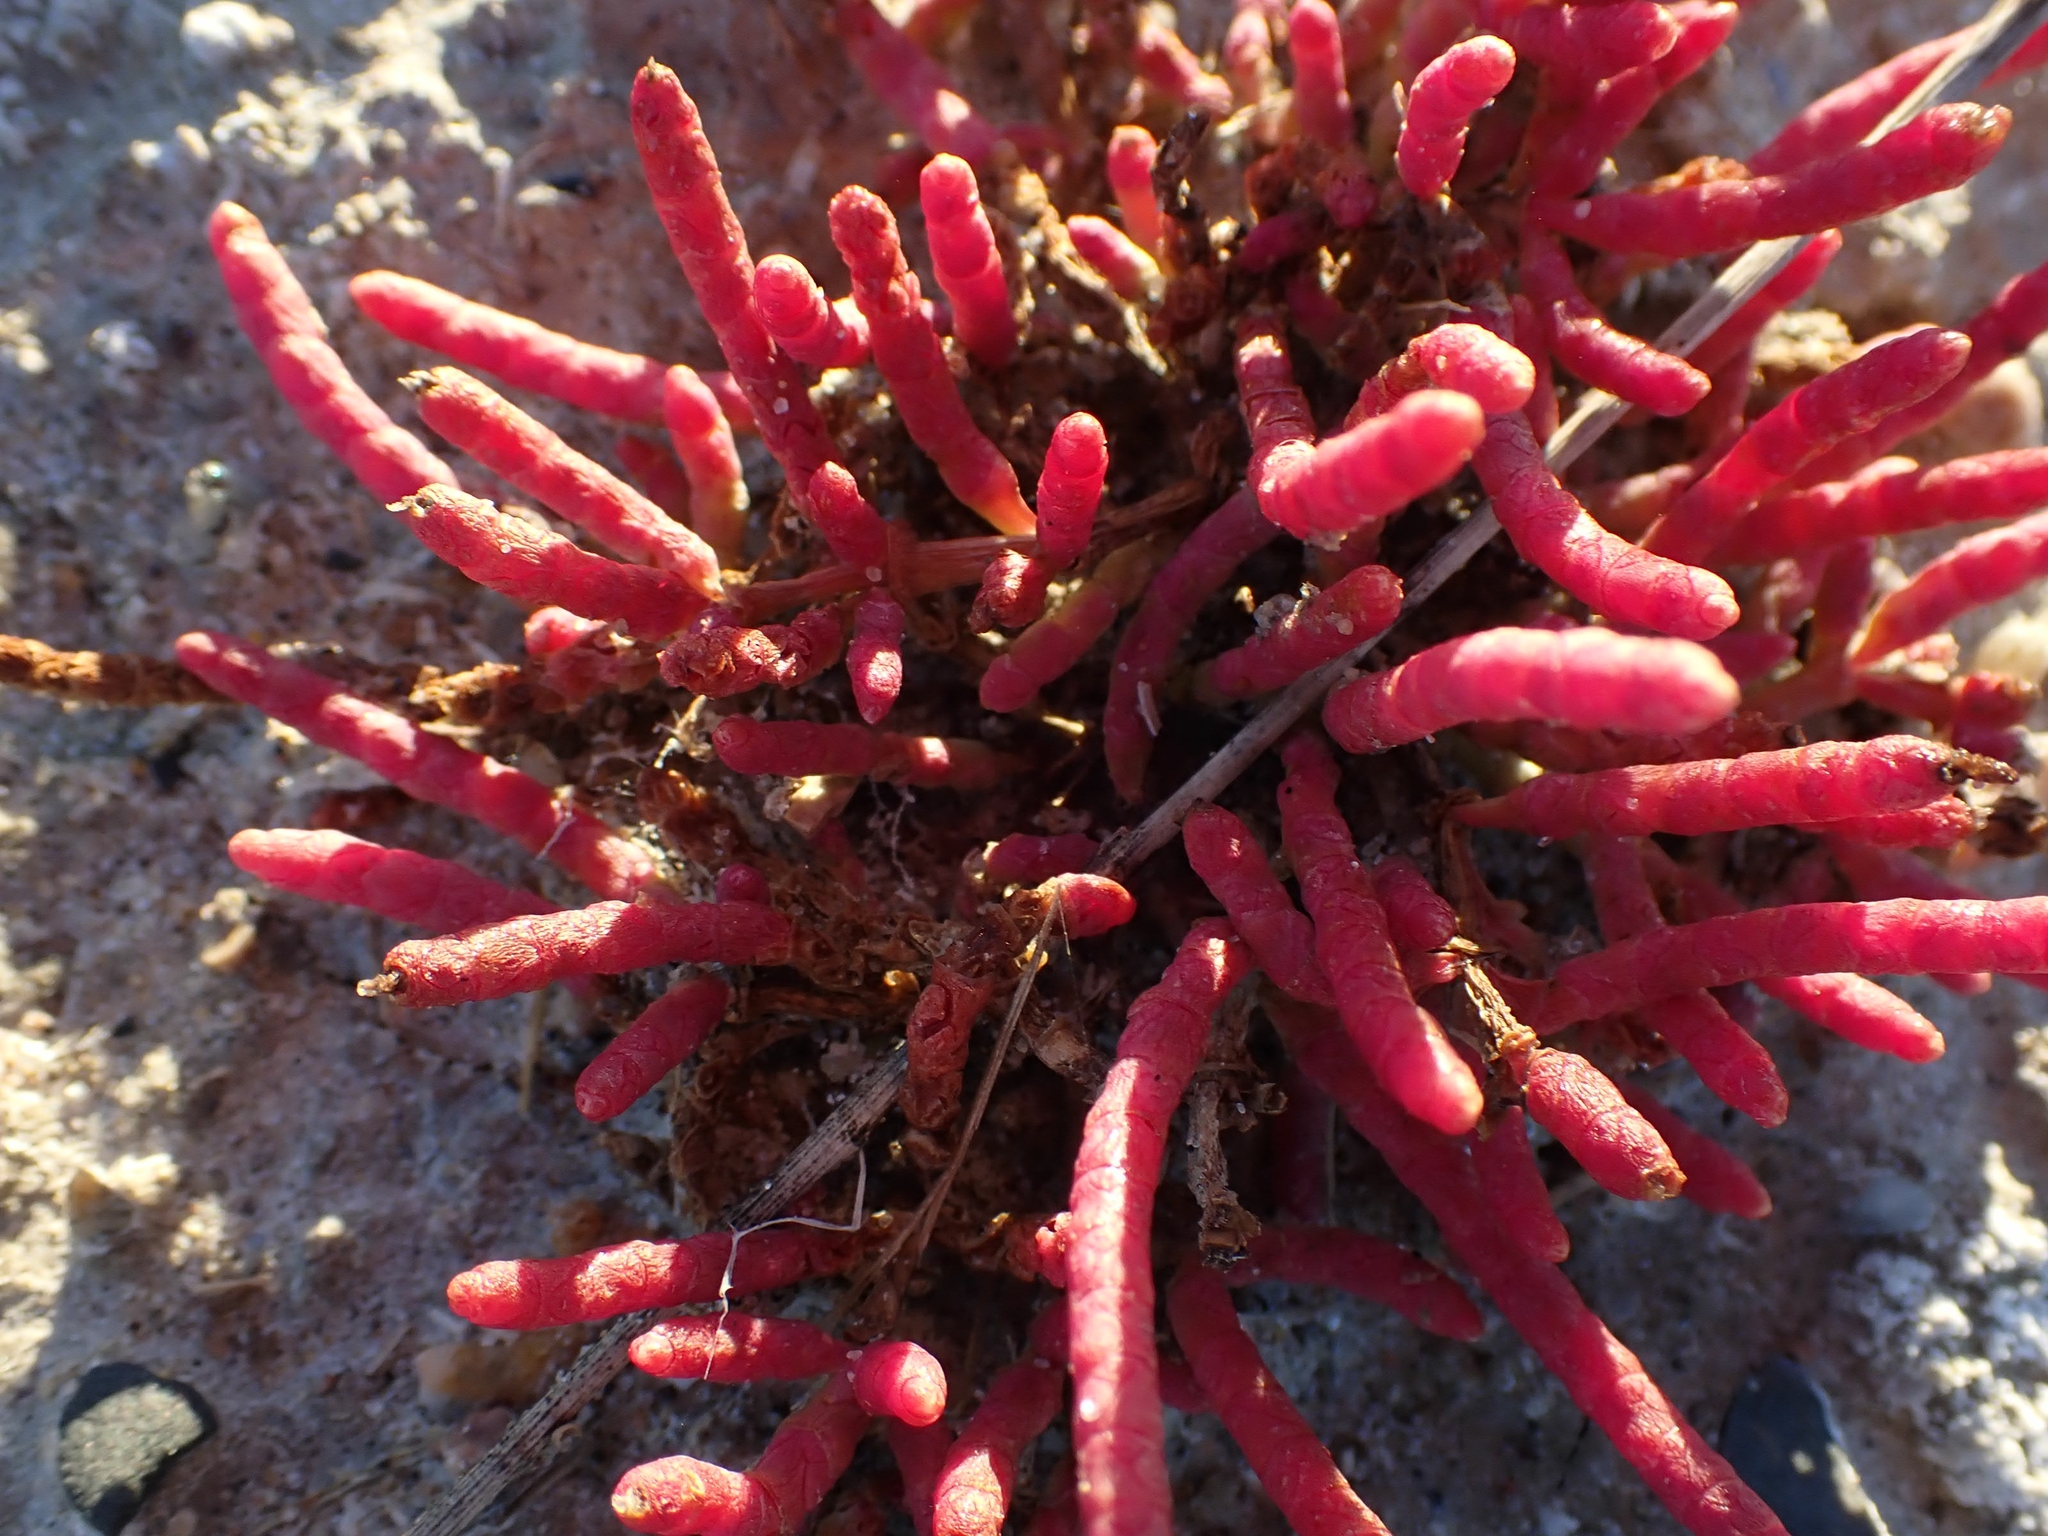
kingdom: Plantae
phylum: Tracheophyta
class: Magnoliopsida
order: Caryophyllales
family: Amaranthaceae
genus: Salicornia
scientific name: Salicornia rubra
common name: Red glasswort
